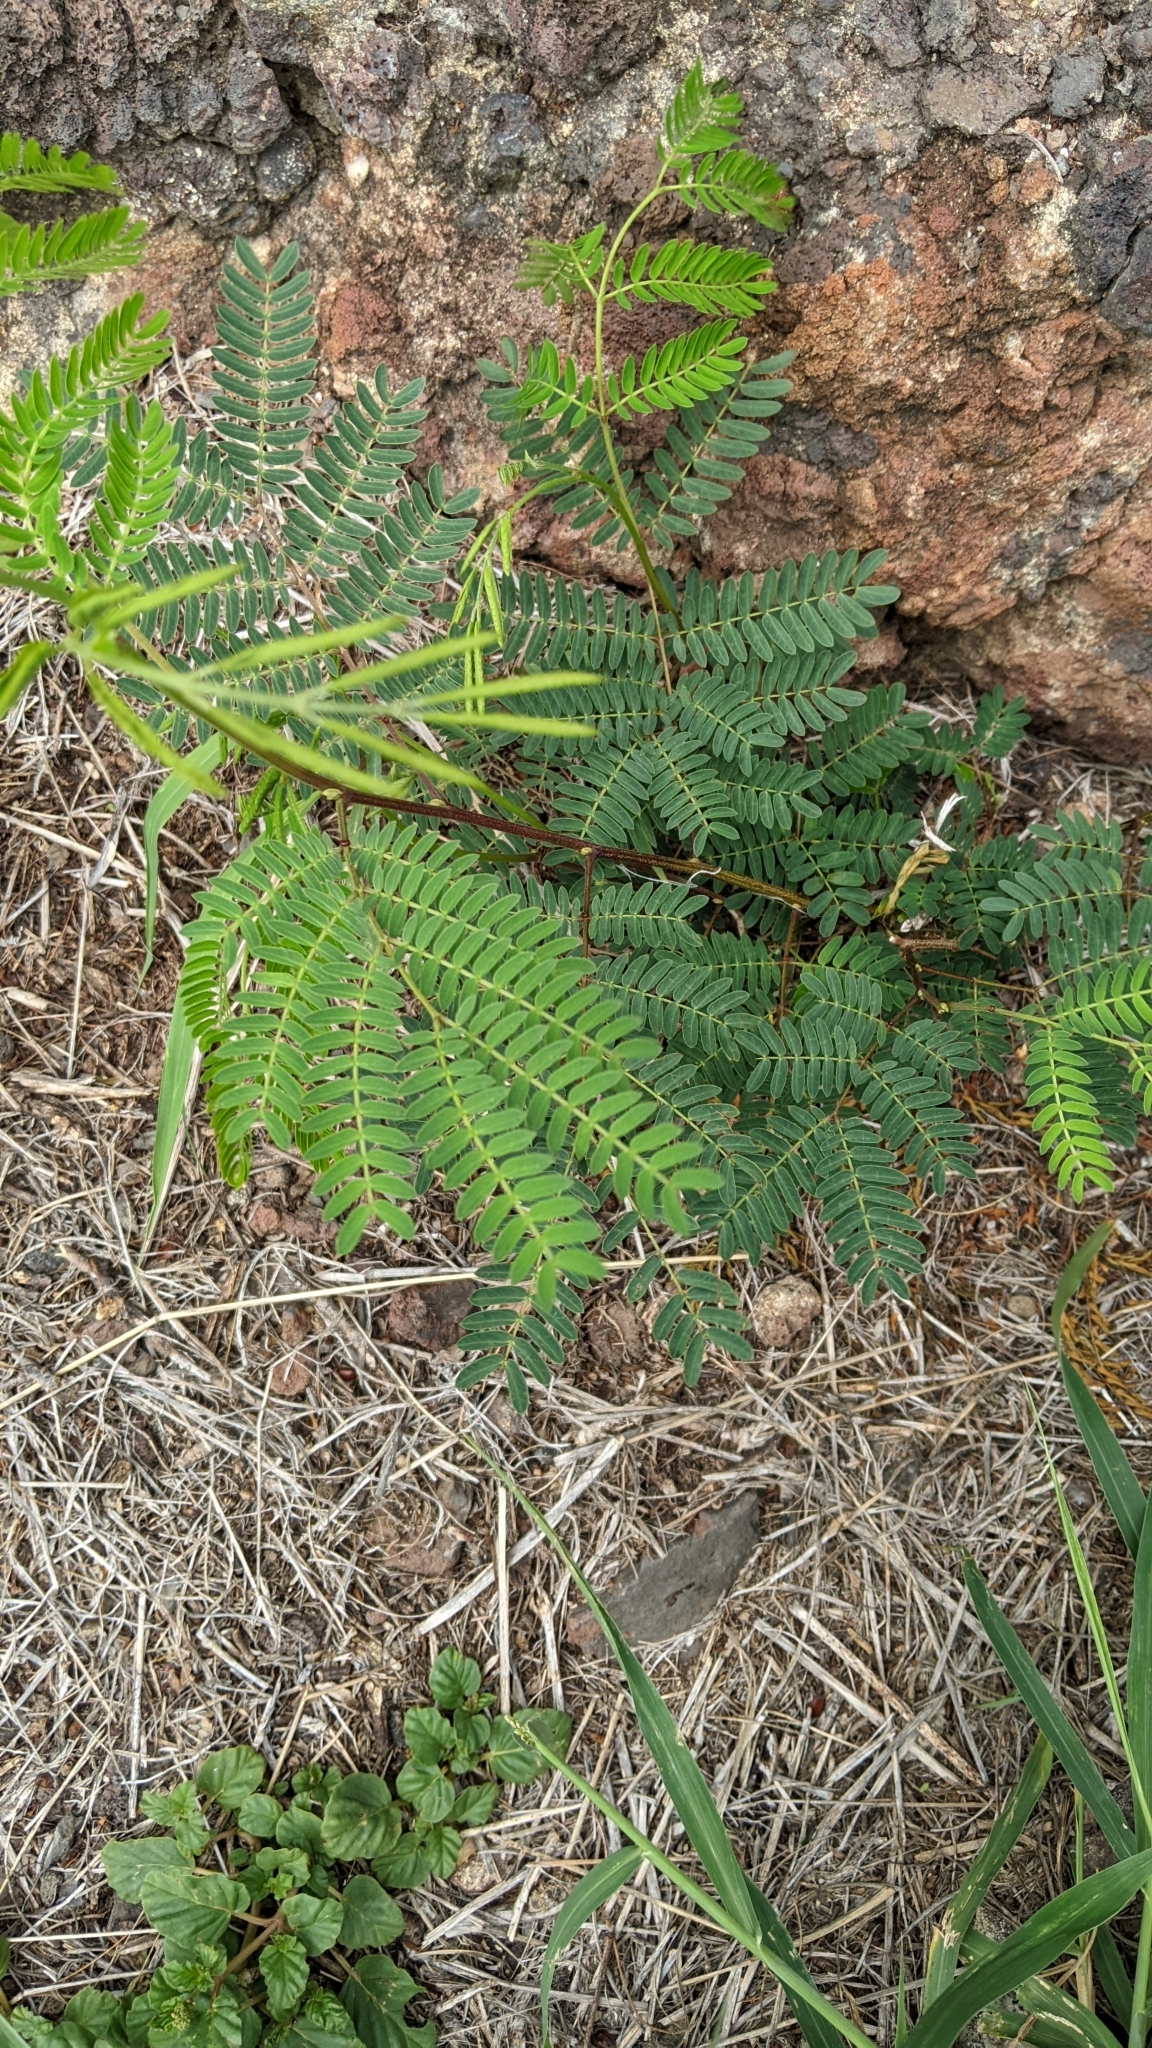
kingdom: Plantae
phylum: Tracheophyta
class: Magnoliopsida
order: Fabales
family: Fabaceae
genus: Leucaena
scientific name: Leucaena leucocephala
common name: White leadtree
